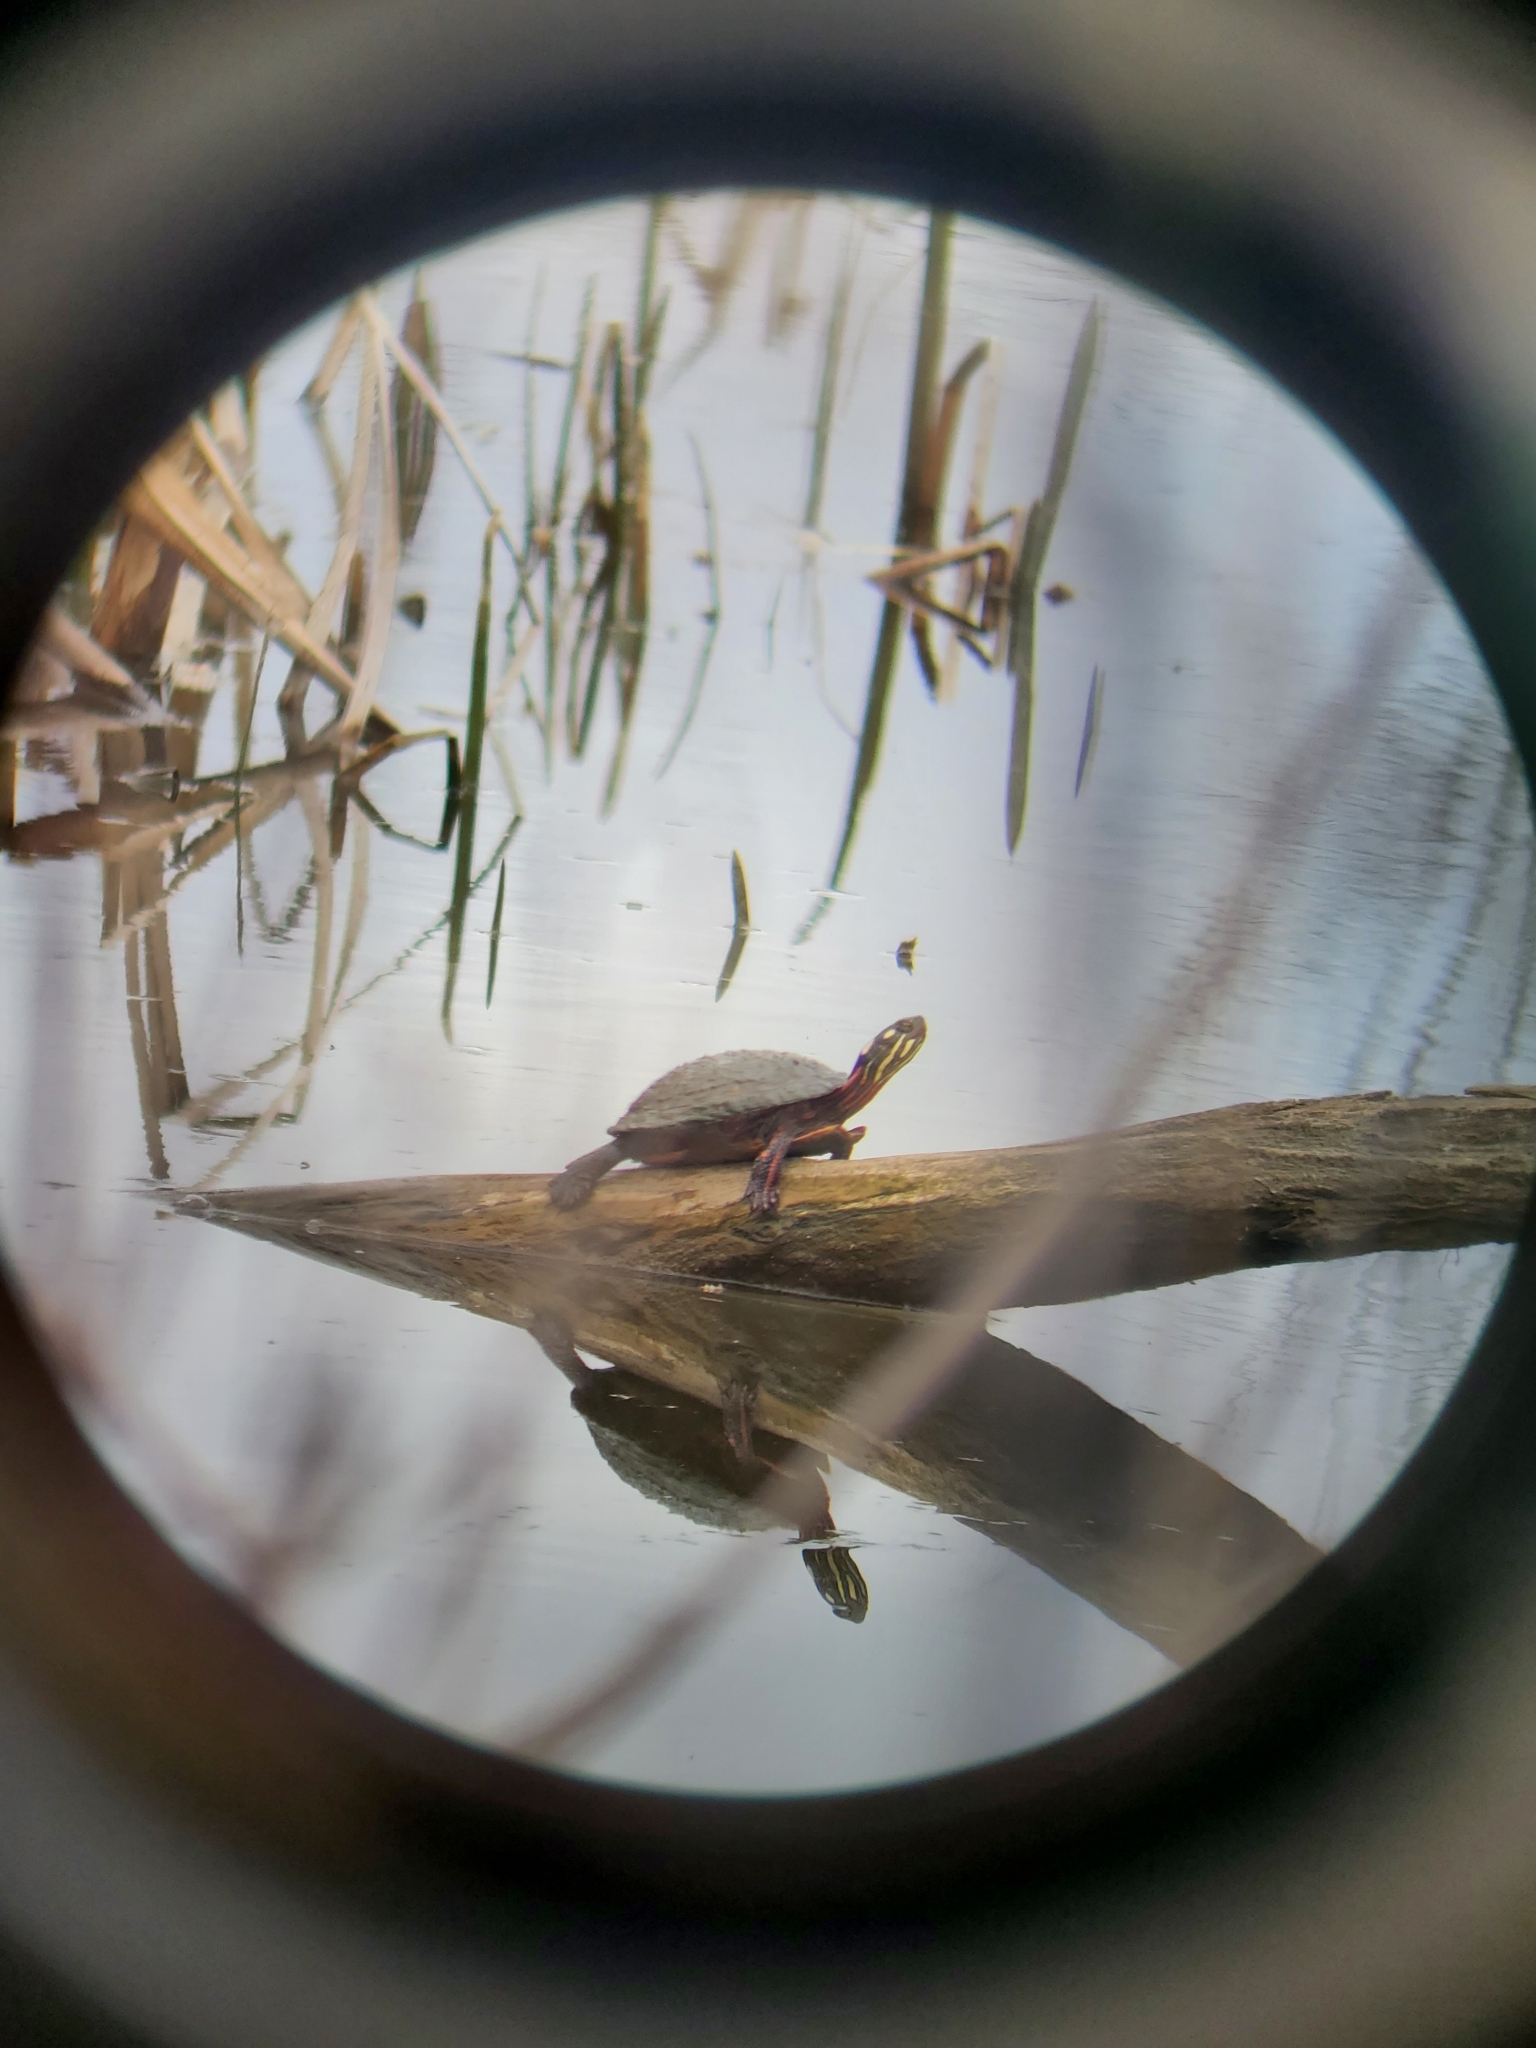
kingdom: Animalia
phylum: Chordata
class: Testudines
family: Emydidae
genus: Chrysemys
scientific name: Chrysemys picta
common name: Painted turtle
